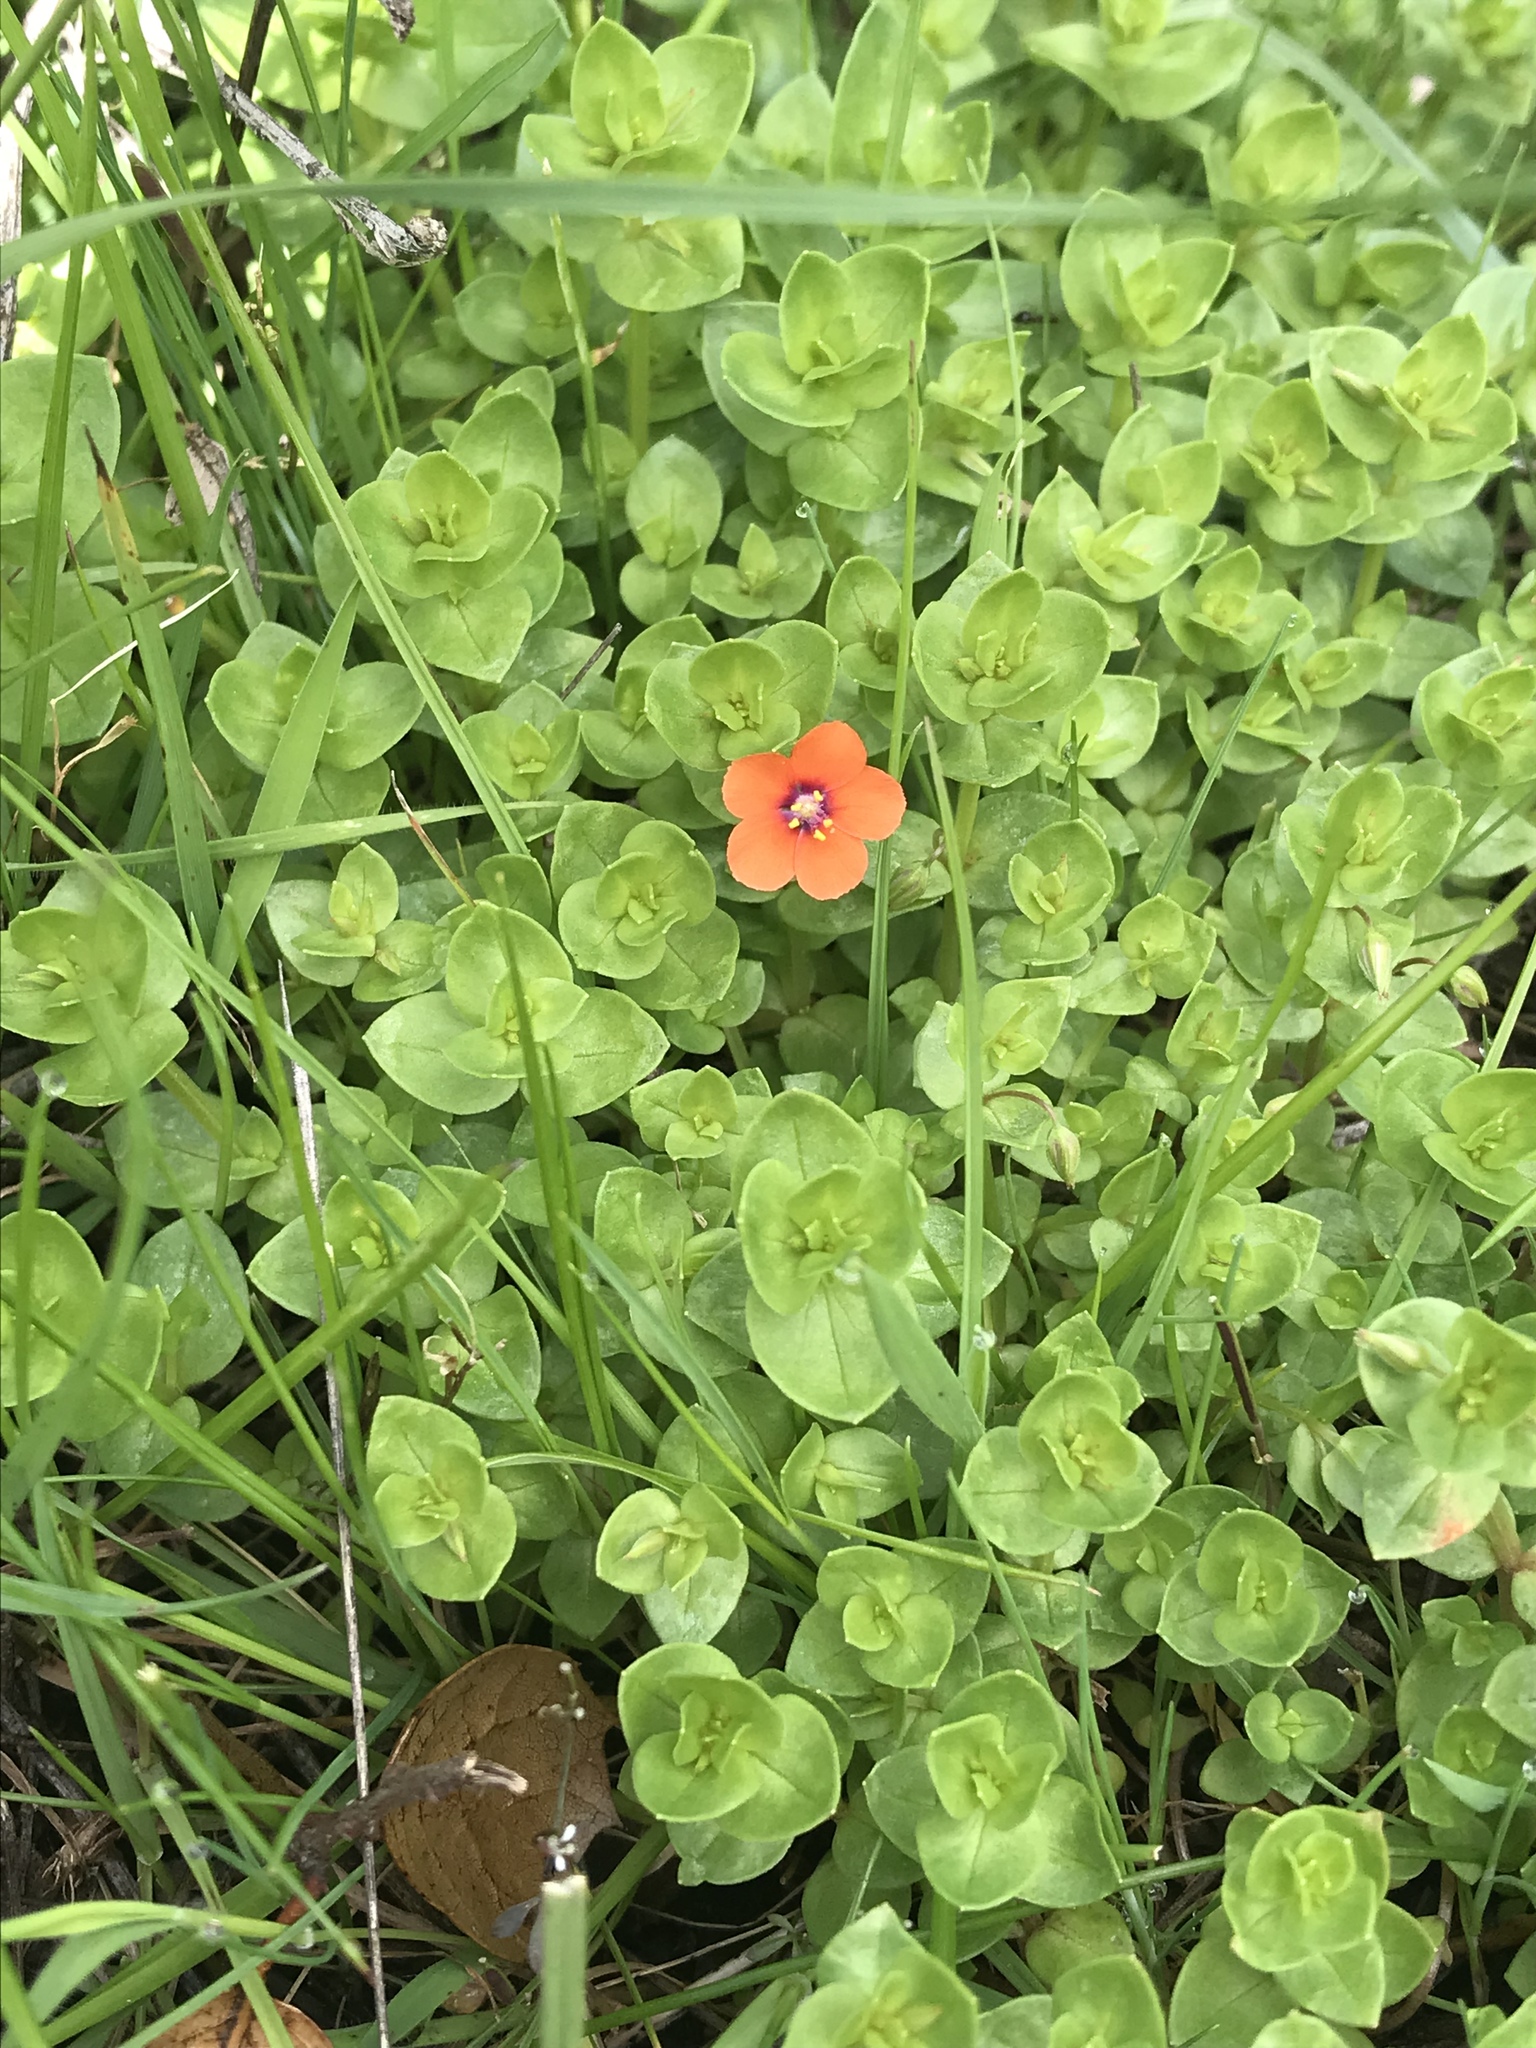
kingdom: Plantae
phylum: Tracheophyta
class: Magnoliopsida
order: Ericales
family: Primulaceae
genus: Lysimachia
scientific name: Lysimachia arvensis
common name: Scarlet pimpernel
